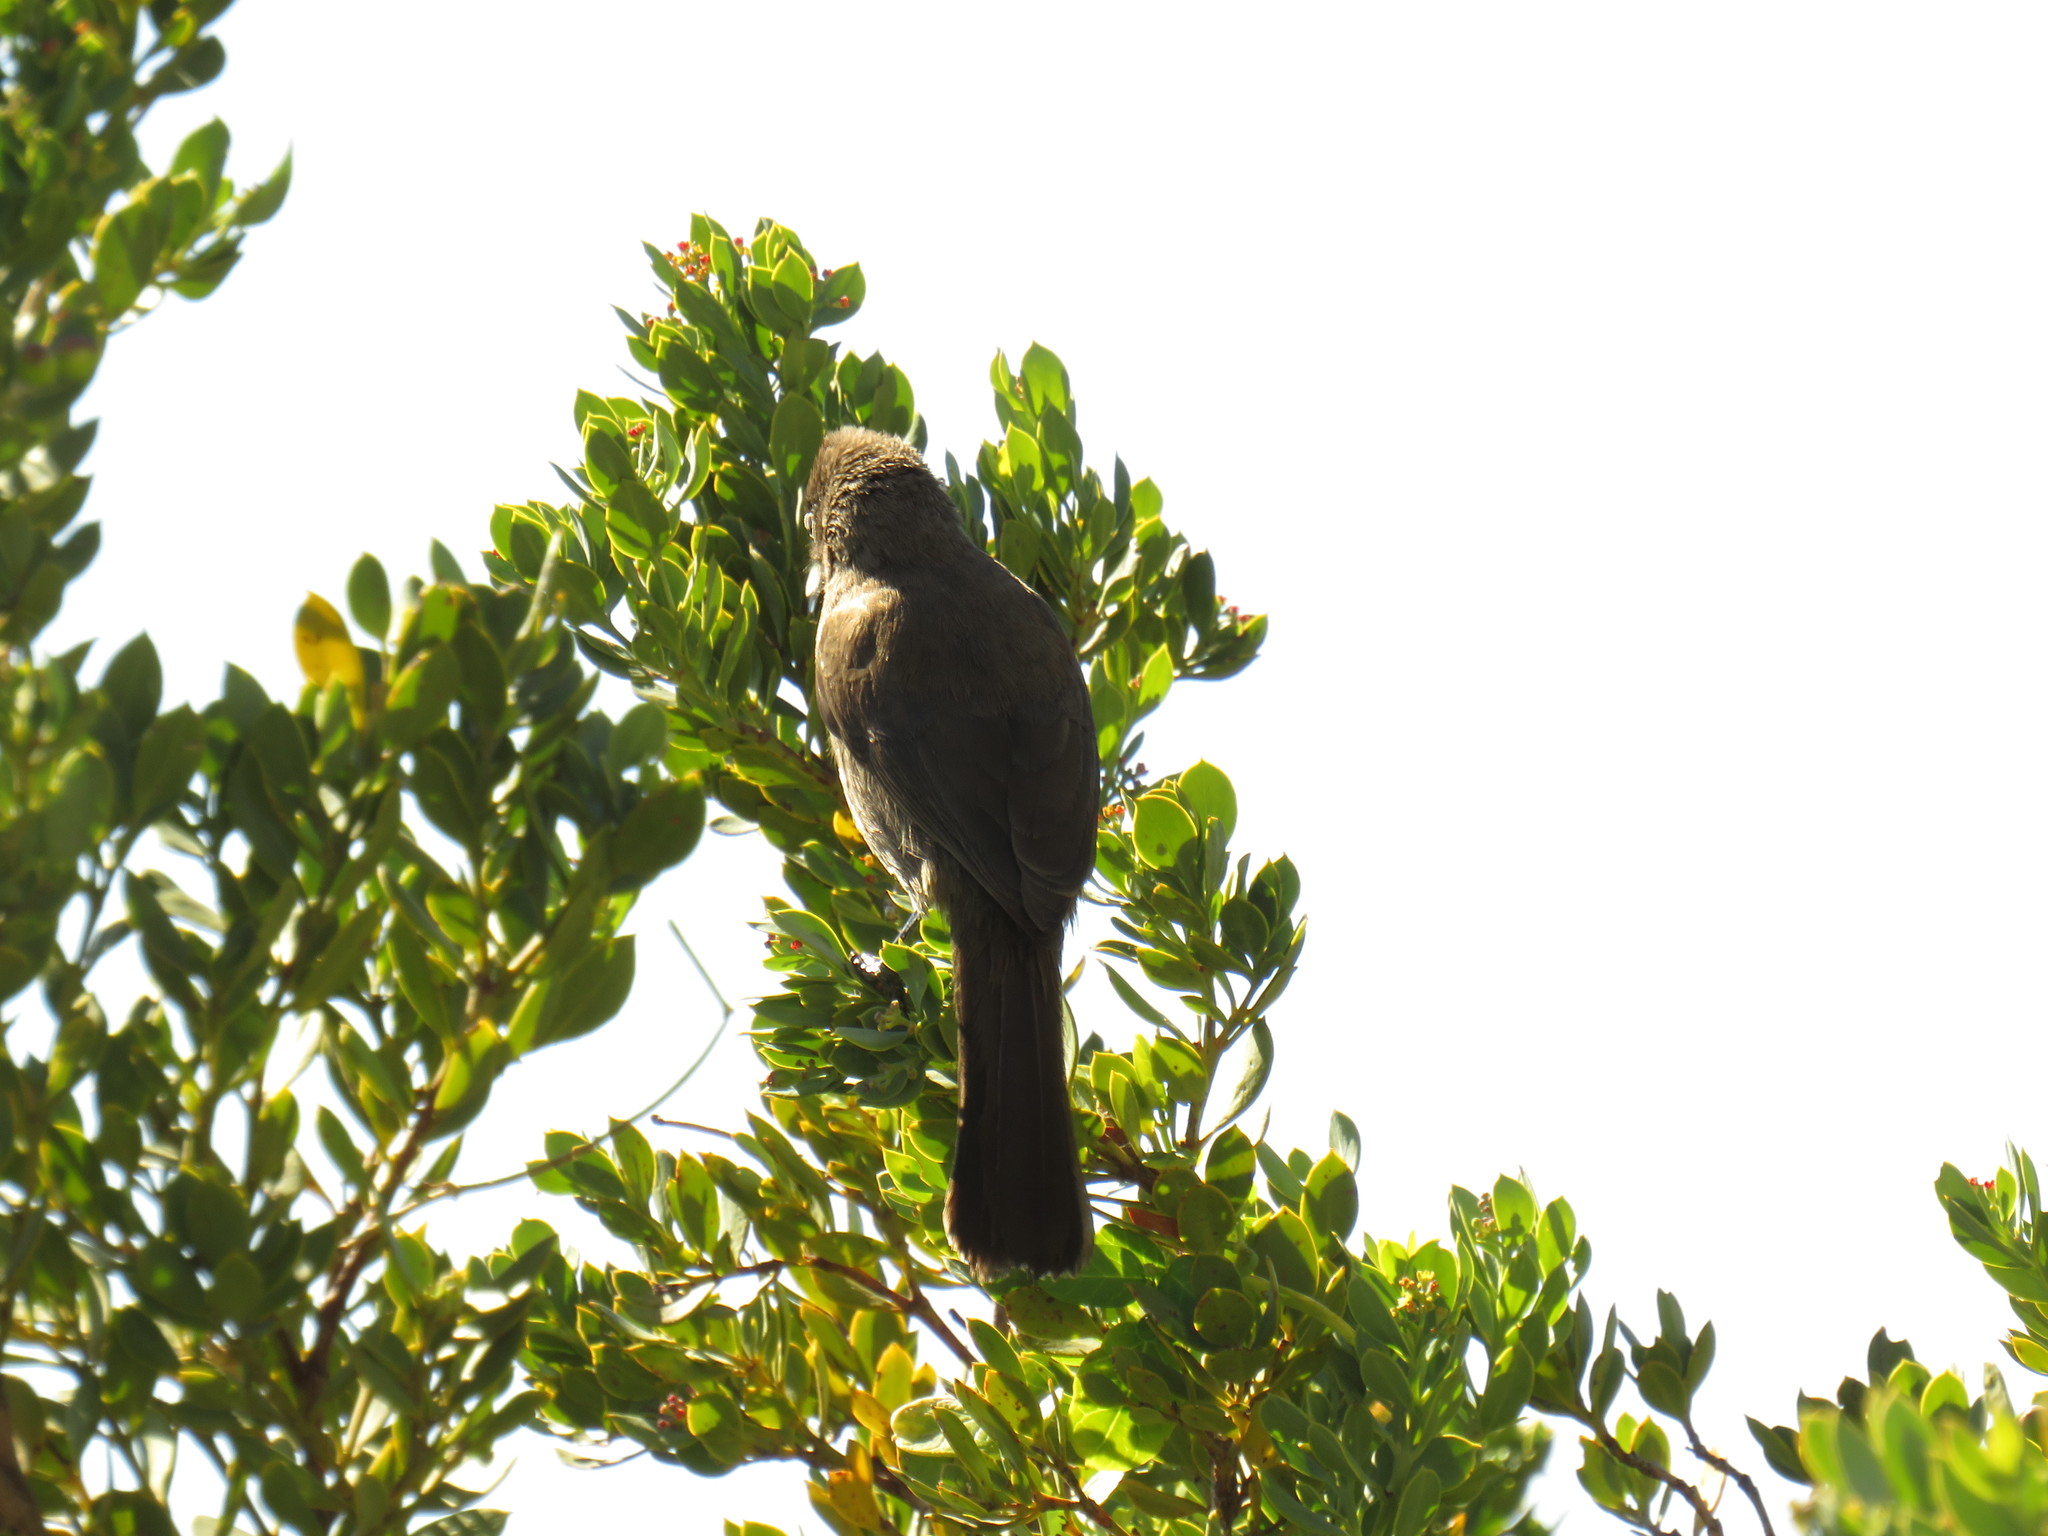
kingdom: Animalia
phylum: Chordata
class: Aves
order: Passeriformes
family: Pycnonotidae
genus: Pycnonotus
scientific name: Pycnonotus capensis
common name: Cape bulbul
